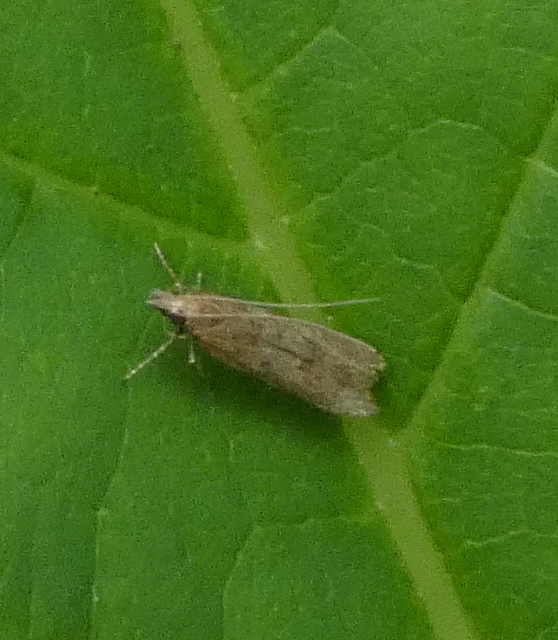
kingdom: Animalia
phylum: Arthropoda
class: Insecta
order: Lepidoptera
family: Gelechiidae
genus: Dichomeris
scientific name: Dichomeris ligulella
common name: Moth
